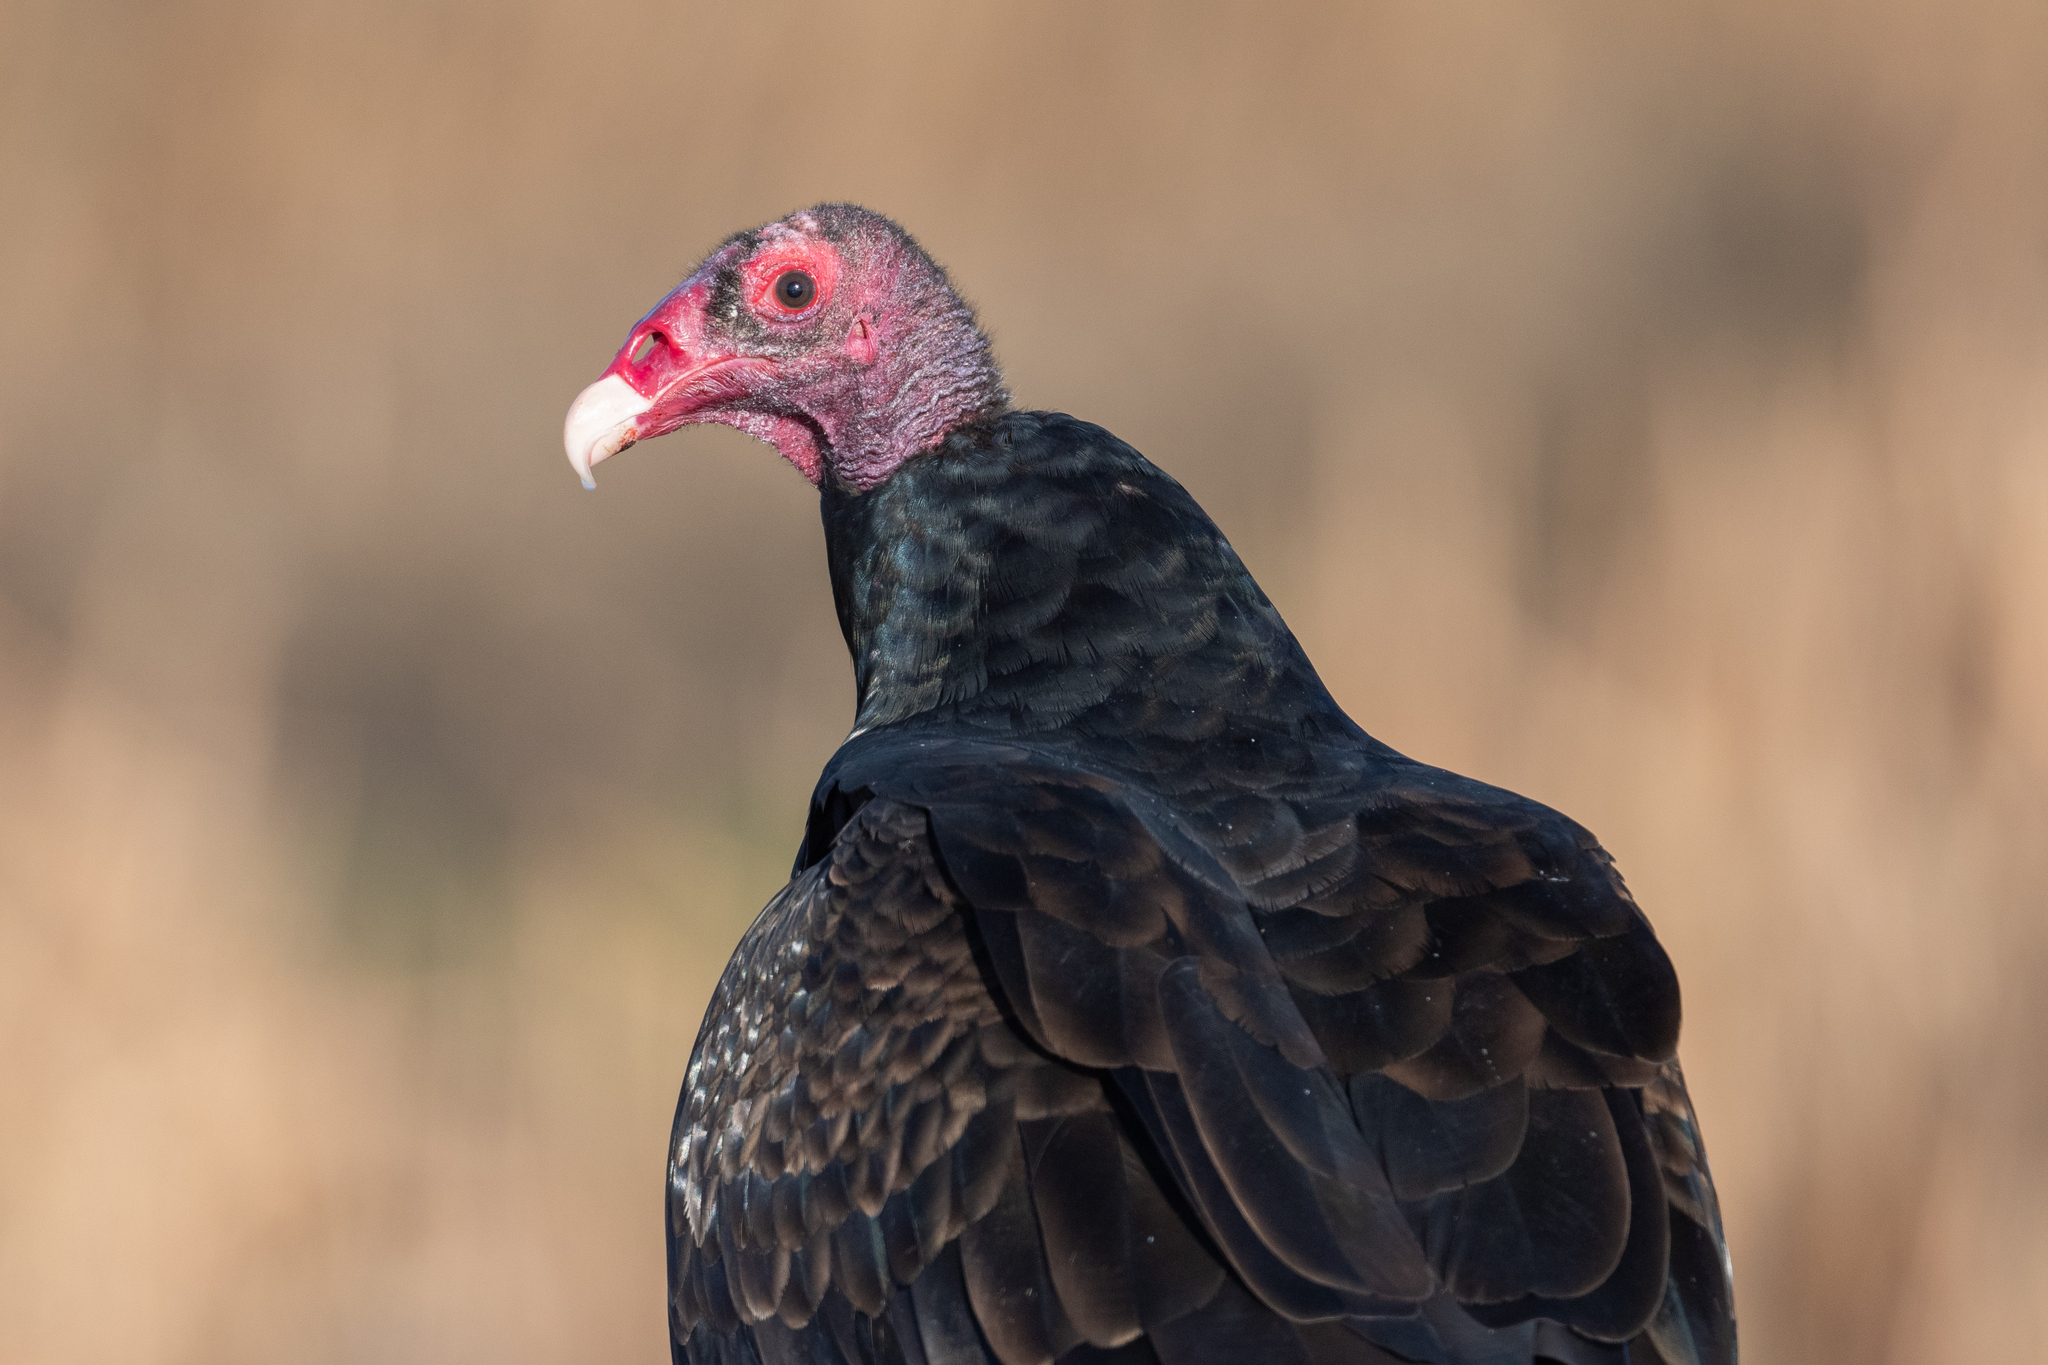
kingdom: Animalia
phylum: Chordata
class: Aves
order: Accipitriformes
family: Cathartidae
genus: Cathartes
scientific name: Cathartes aura
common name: Turkey vulture
